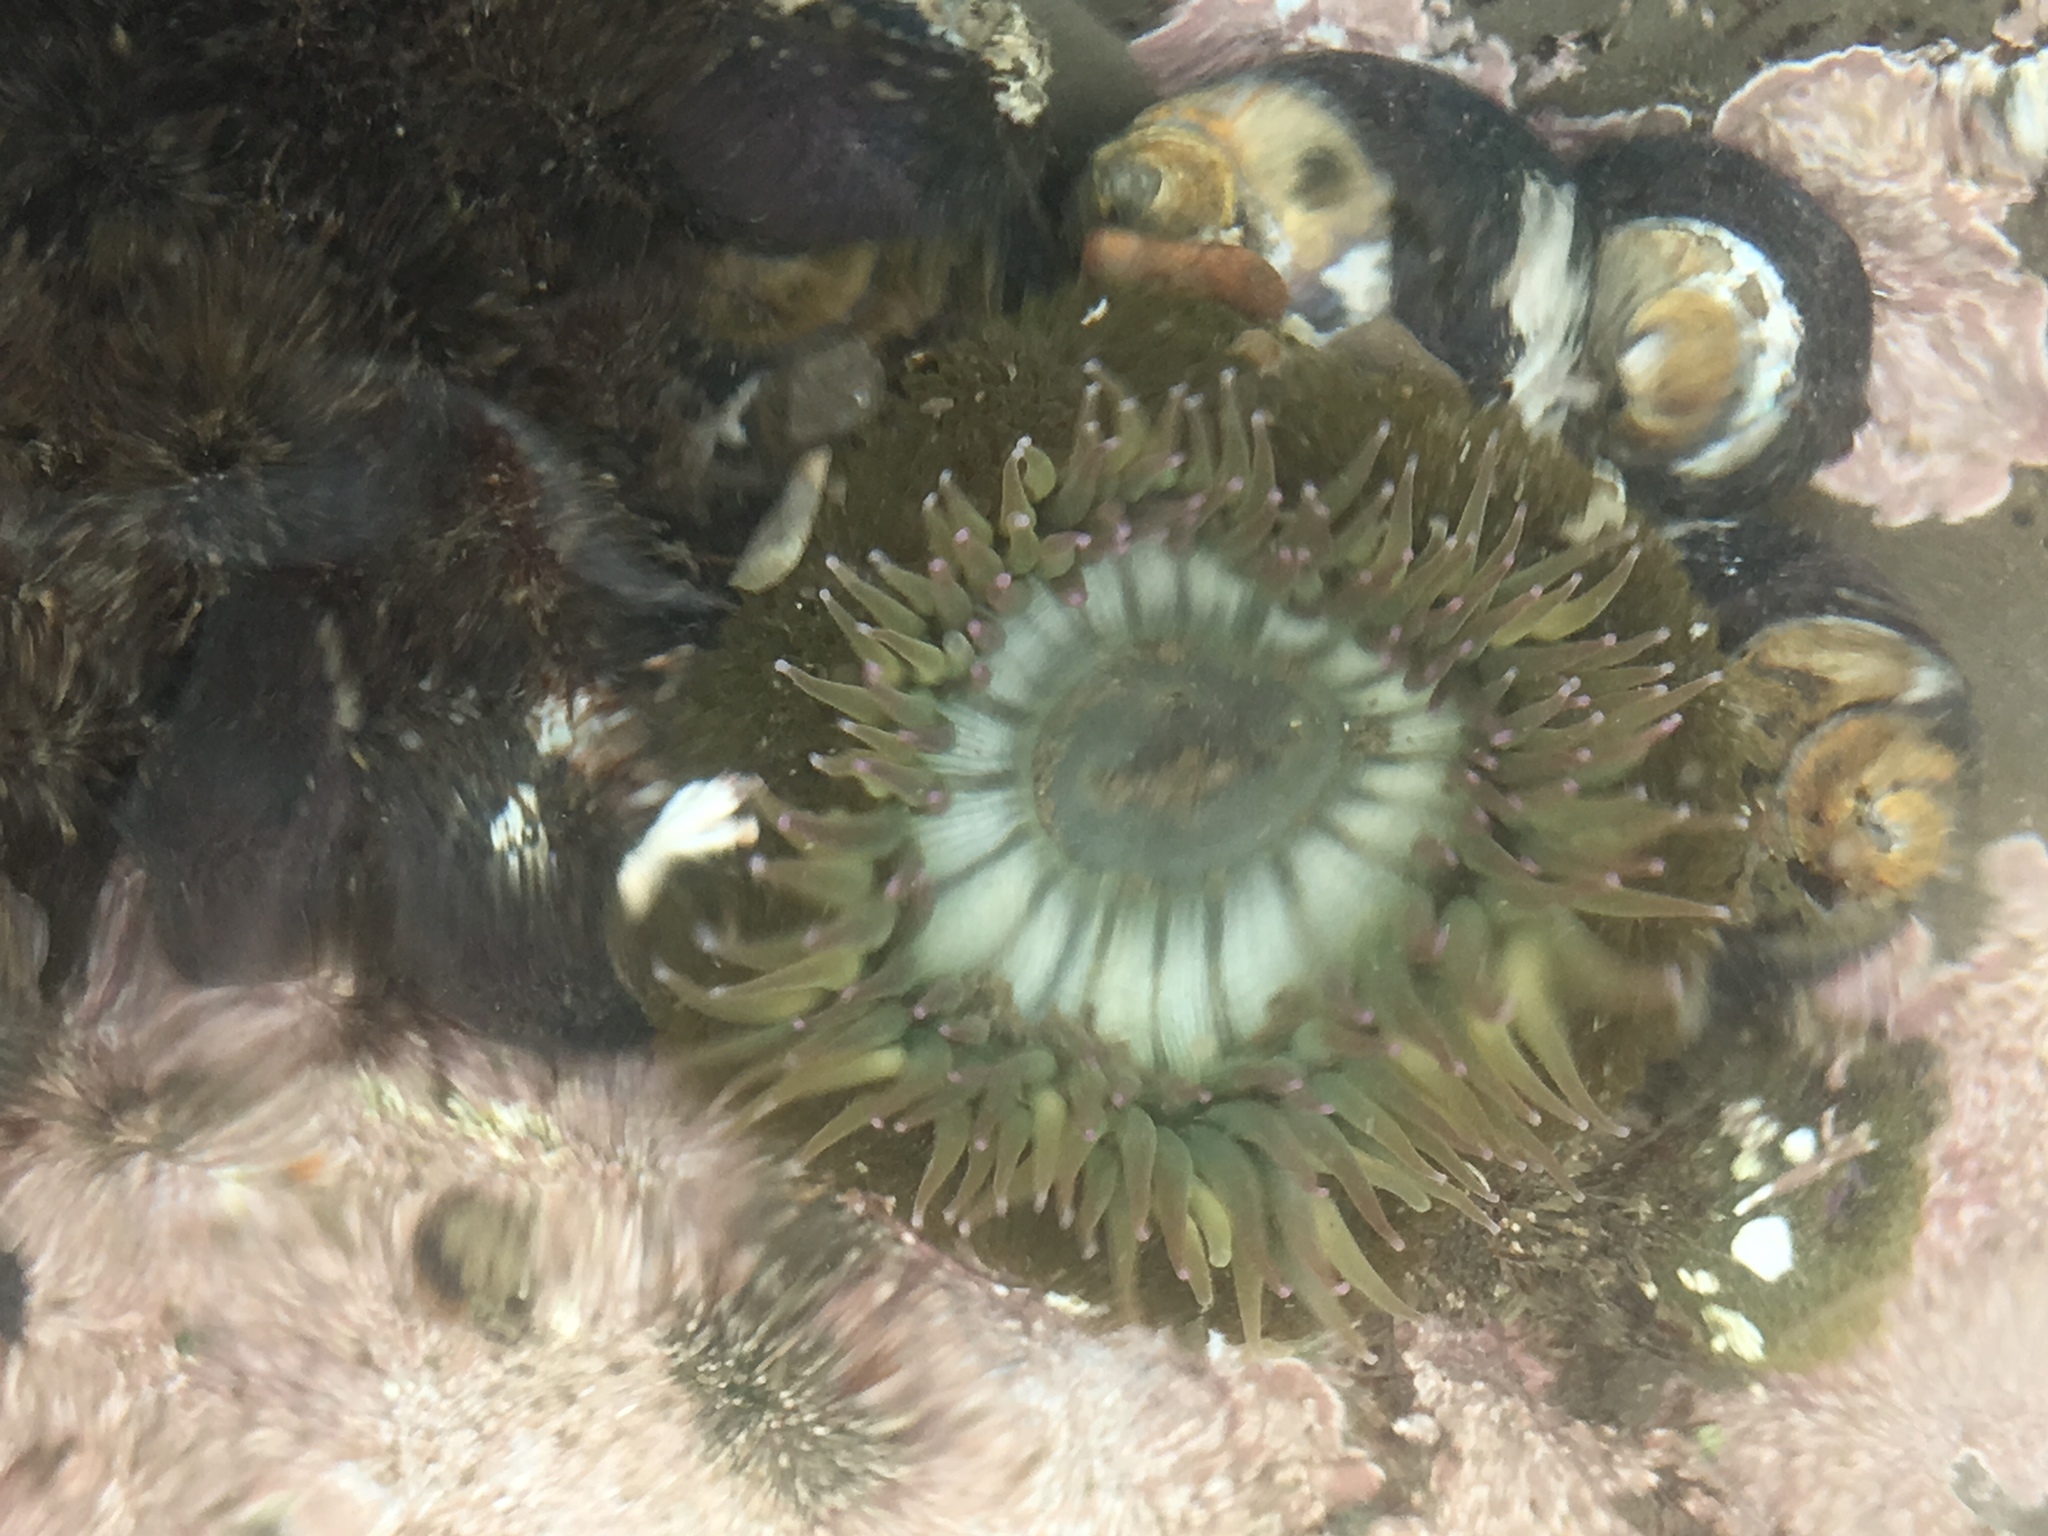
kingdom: Animalia
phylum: Cnidaria
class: Anthozoa
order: Actiniaria
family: Actiniidae
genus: Anthopleura
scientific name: Anthopleura sola
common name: Sun anemone
